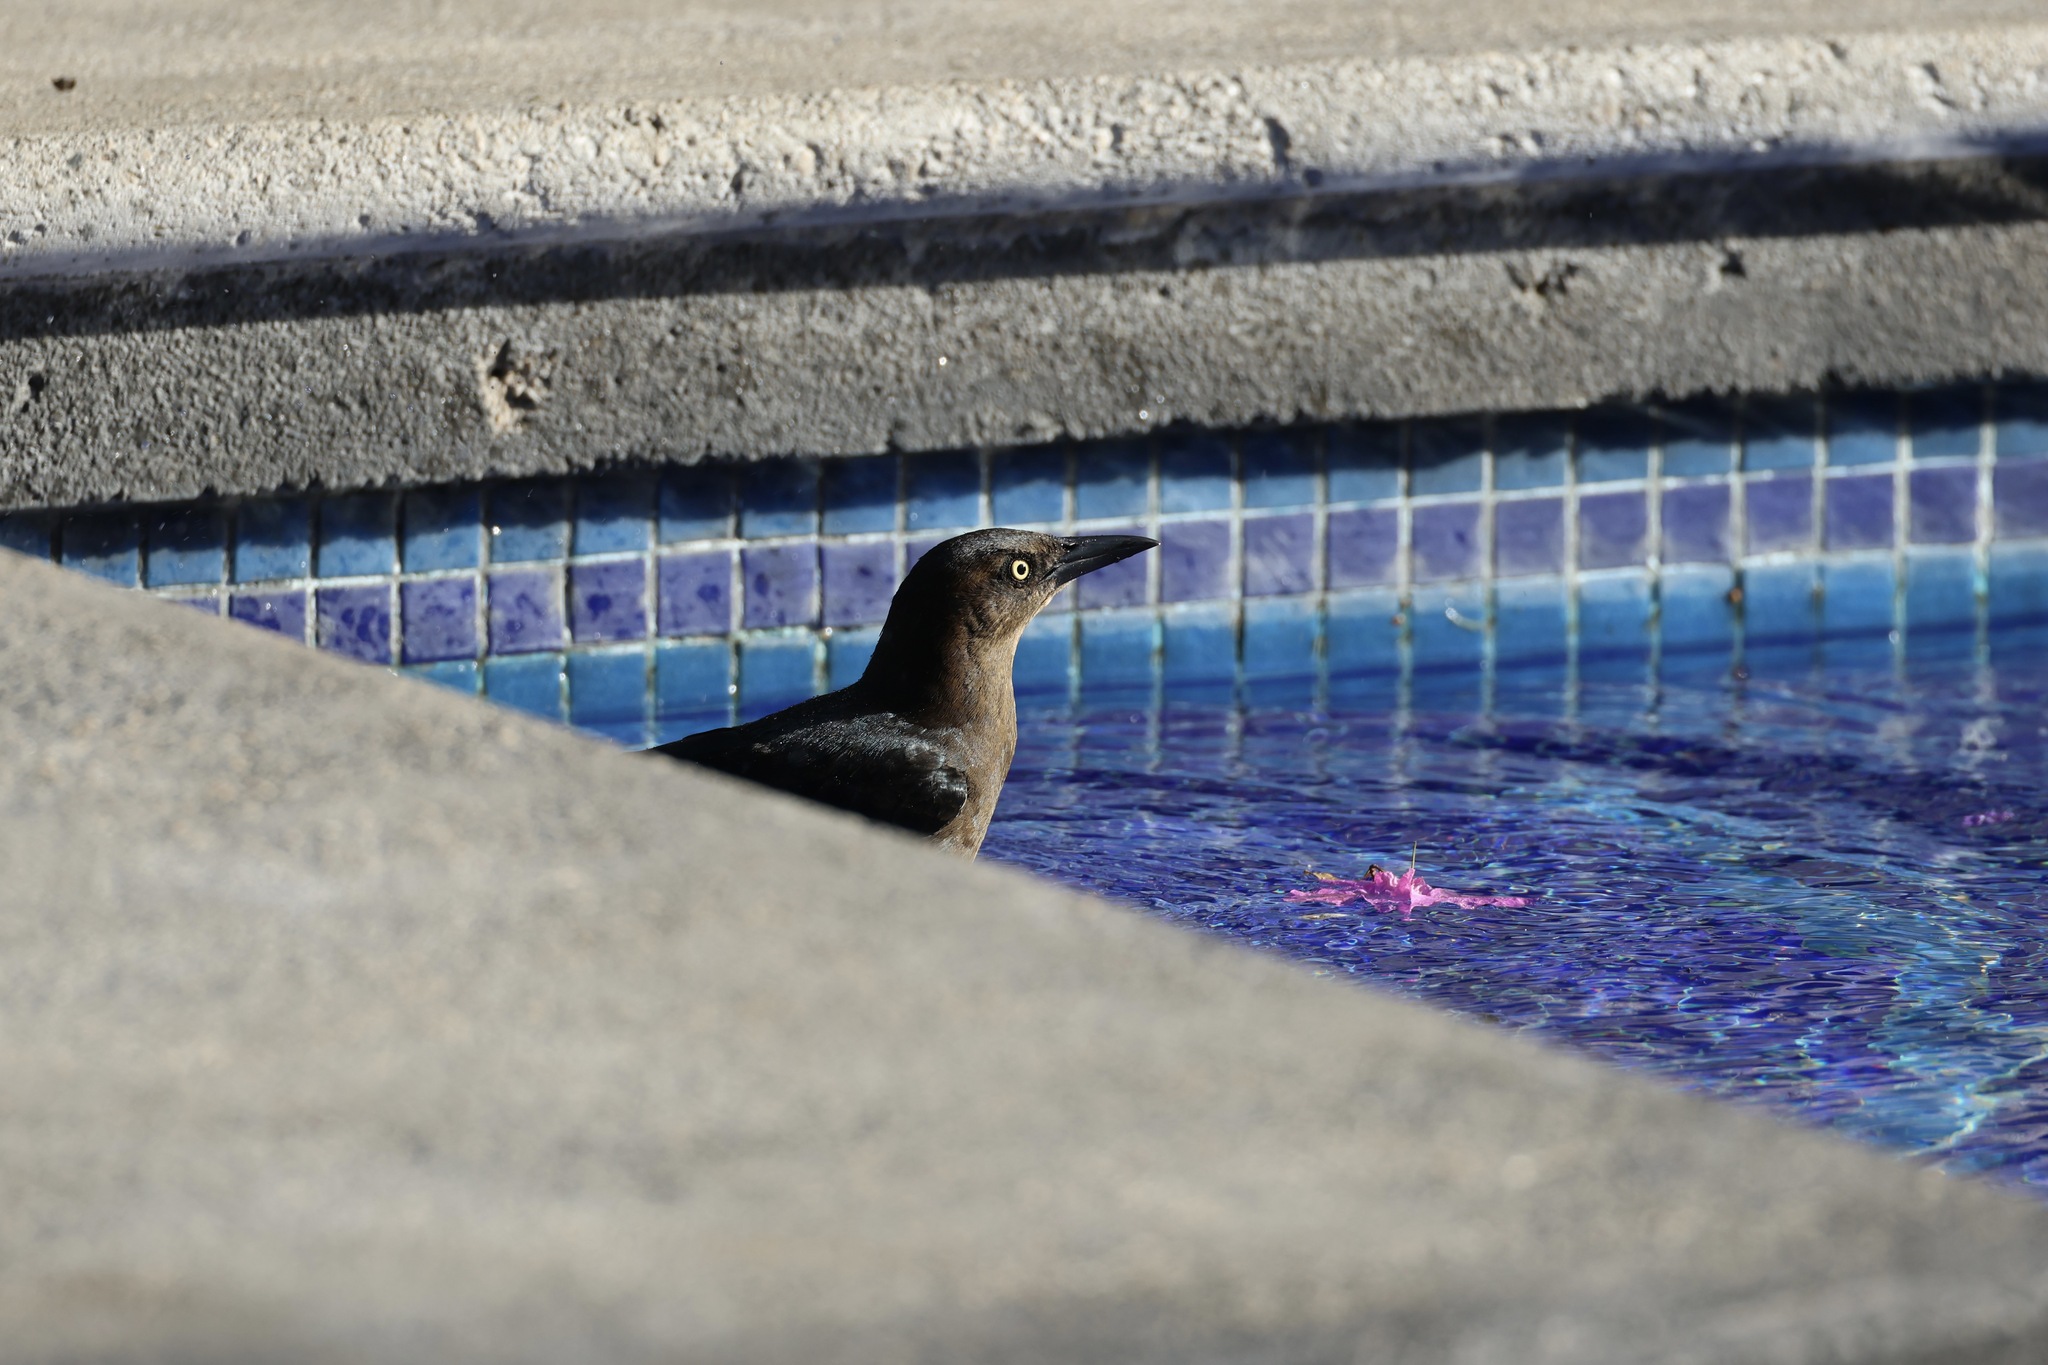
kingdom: Animalia
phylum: Chordata
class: Aves
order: Passeriformes
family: Icteridae
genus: Quiscalus
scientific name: Quiscalus mexicanus
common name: Great-tailed grackle
